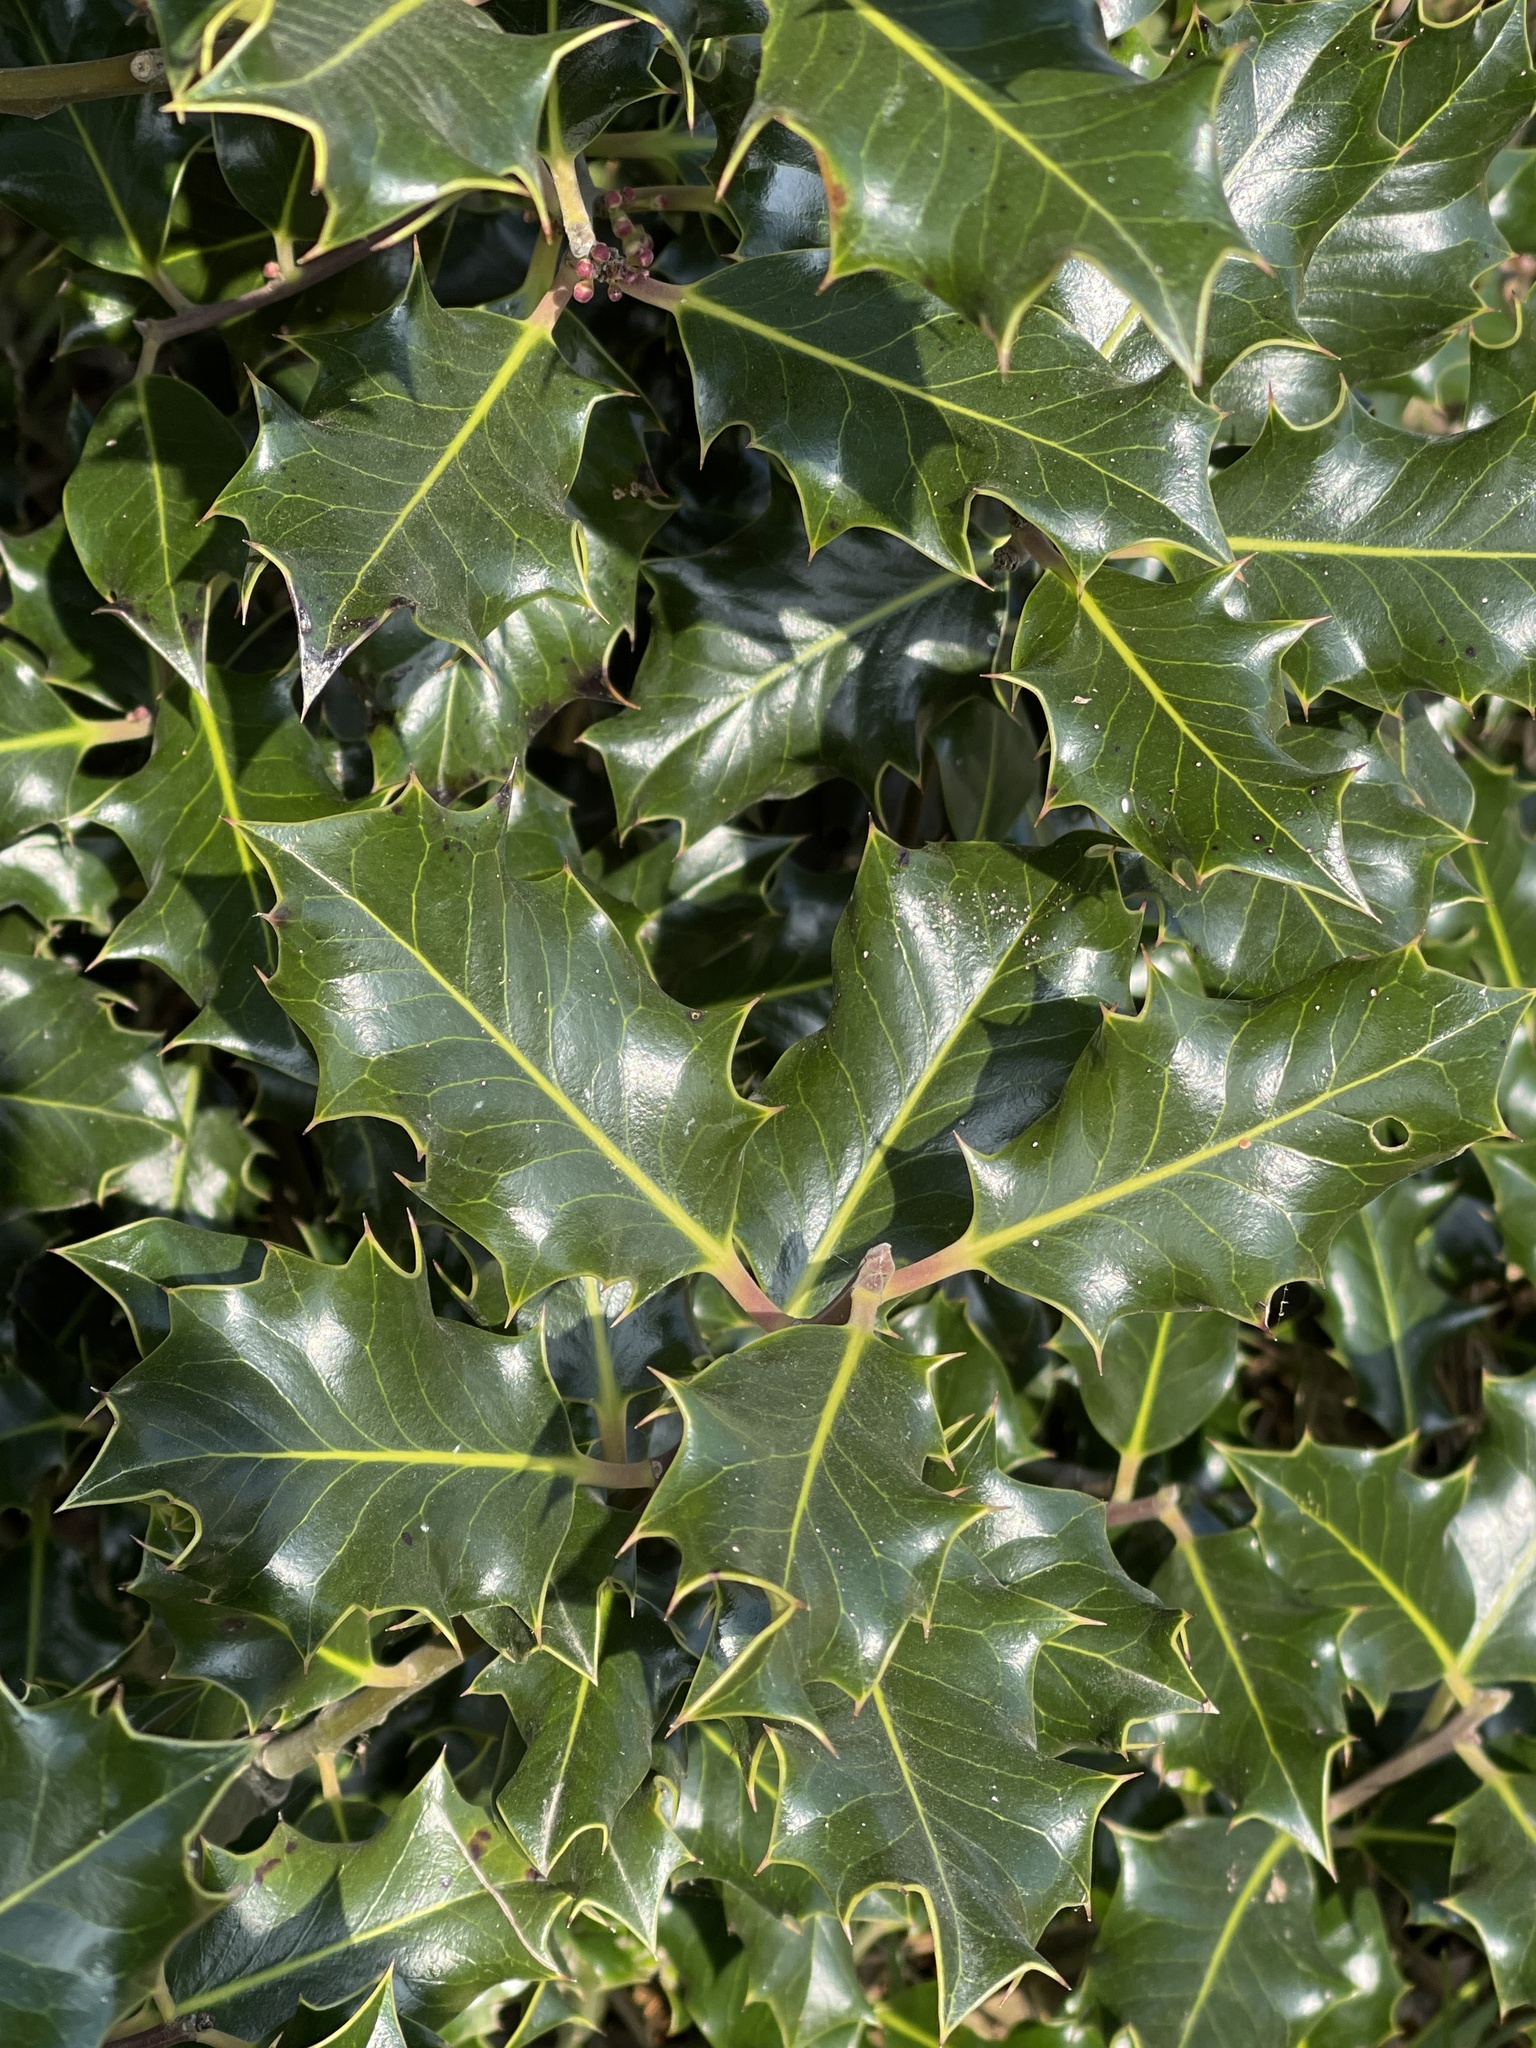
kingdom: Plantae
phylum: Tracheophyta
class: Magnoliopsida
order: Aquifoliales
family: Aquifoliaceae
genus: Ilex
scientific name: Ilex aquifolium
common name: English holly
